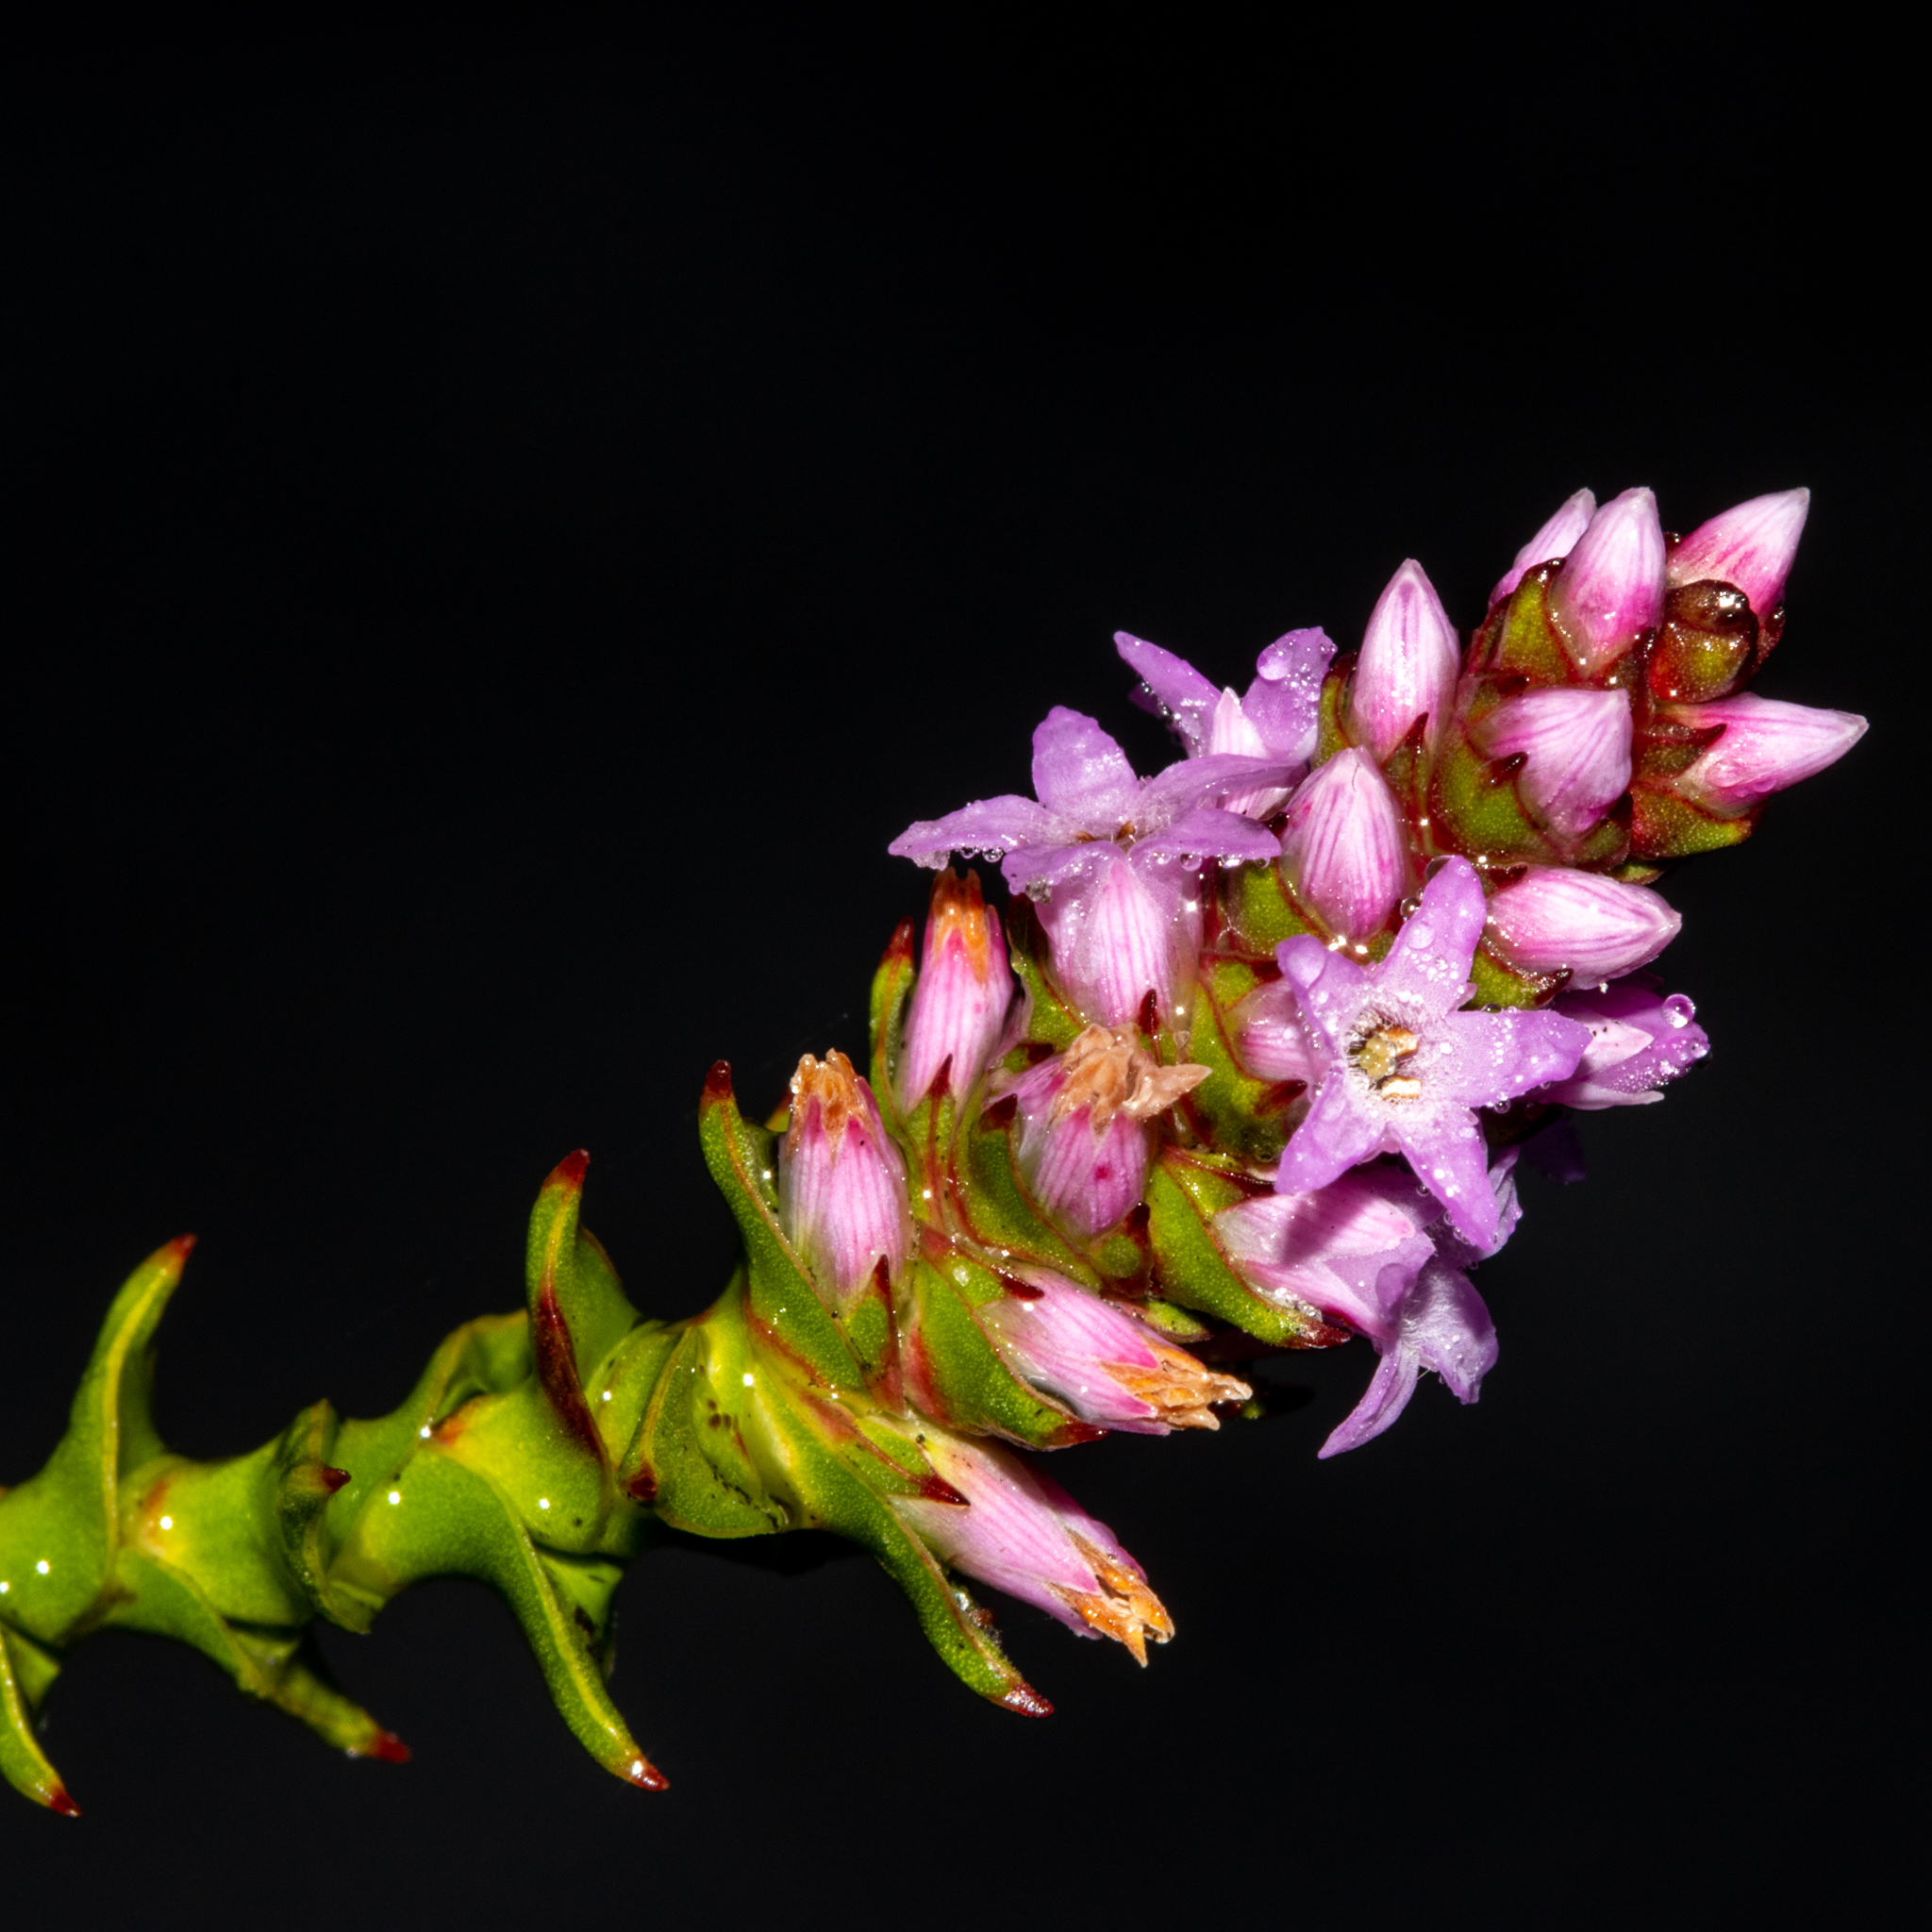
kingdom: Plantae
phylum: Tracheophyta
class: Magnoliopsida
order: Ericales
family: Ericaceae
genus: Andersonia
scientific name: Andersonia simplex
